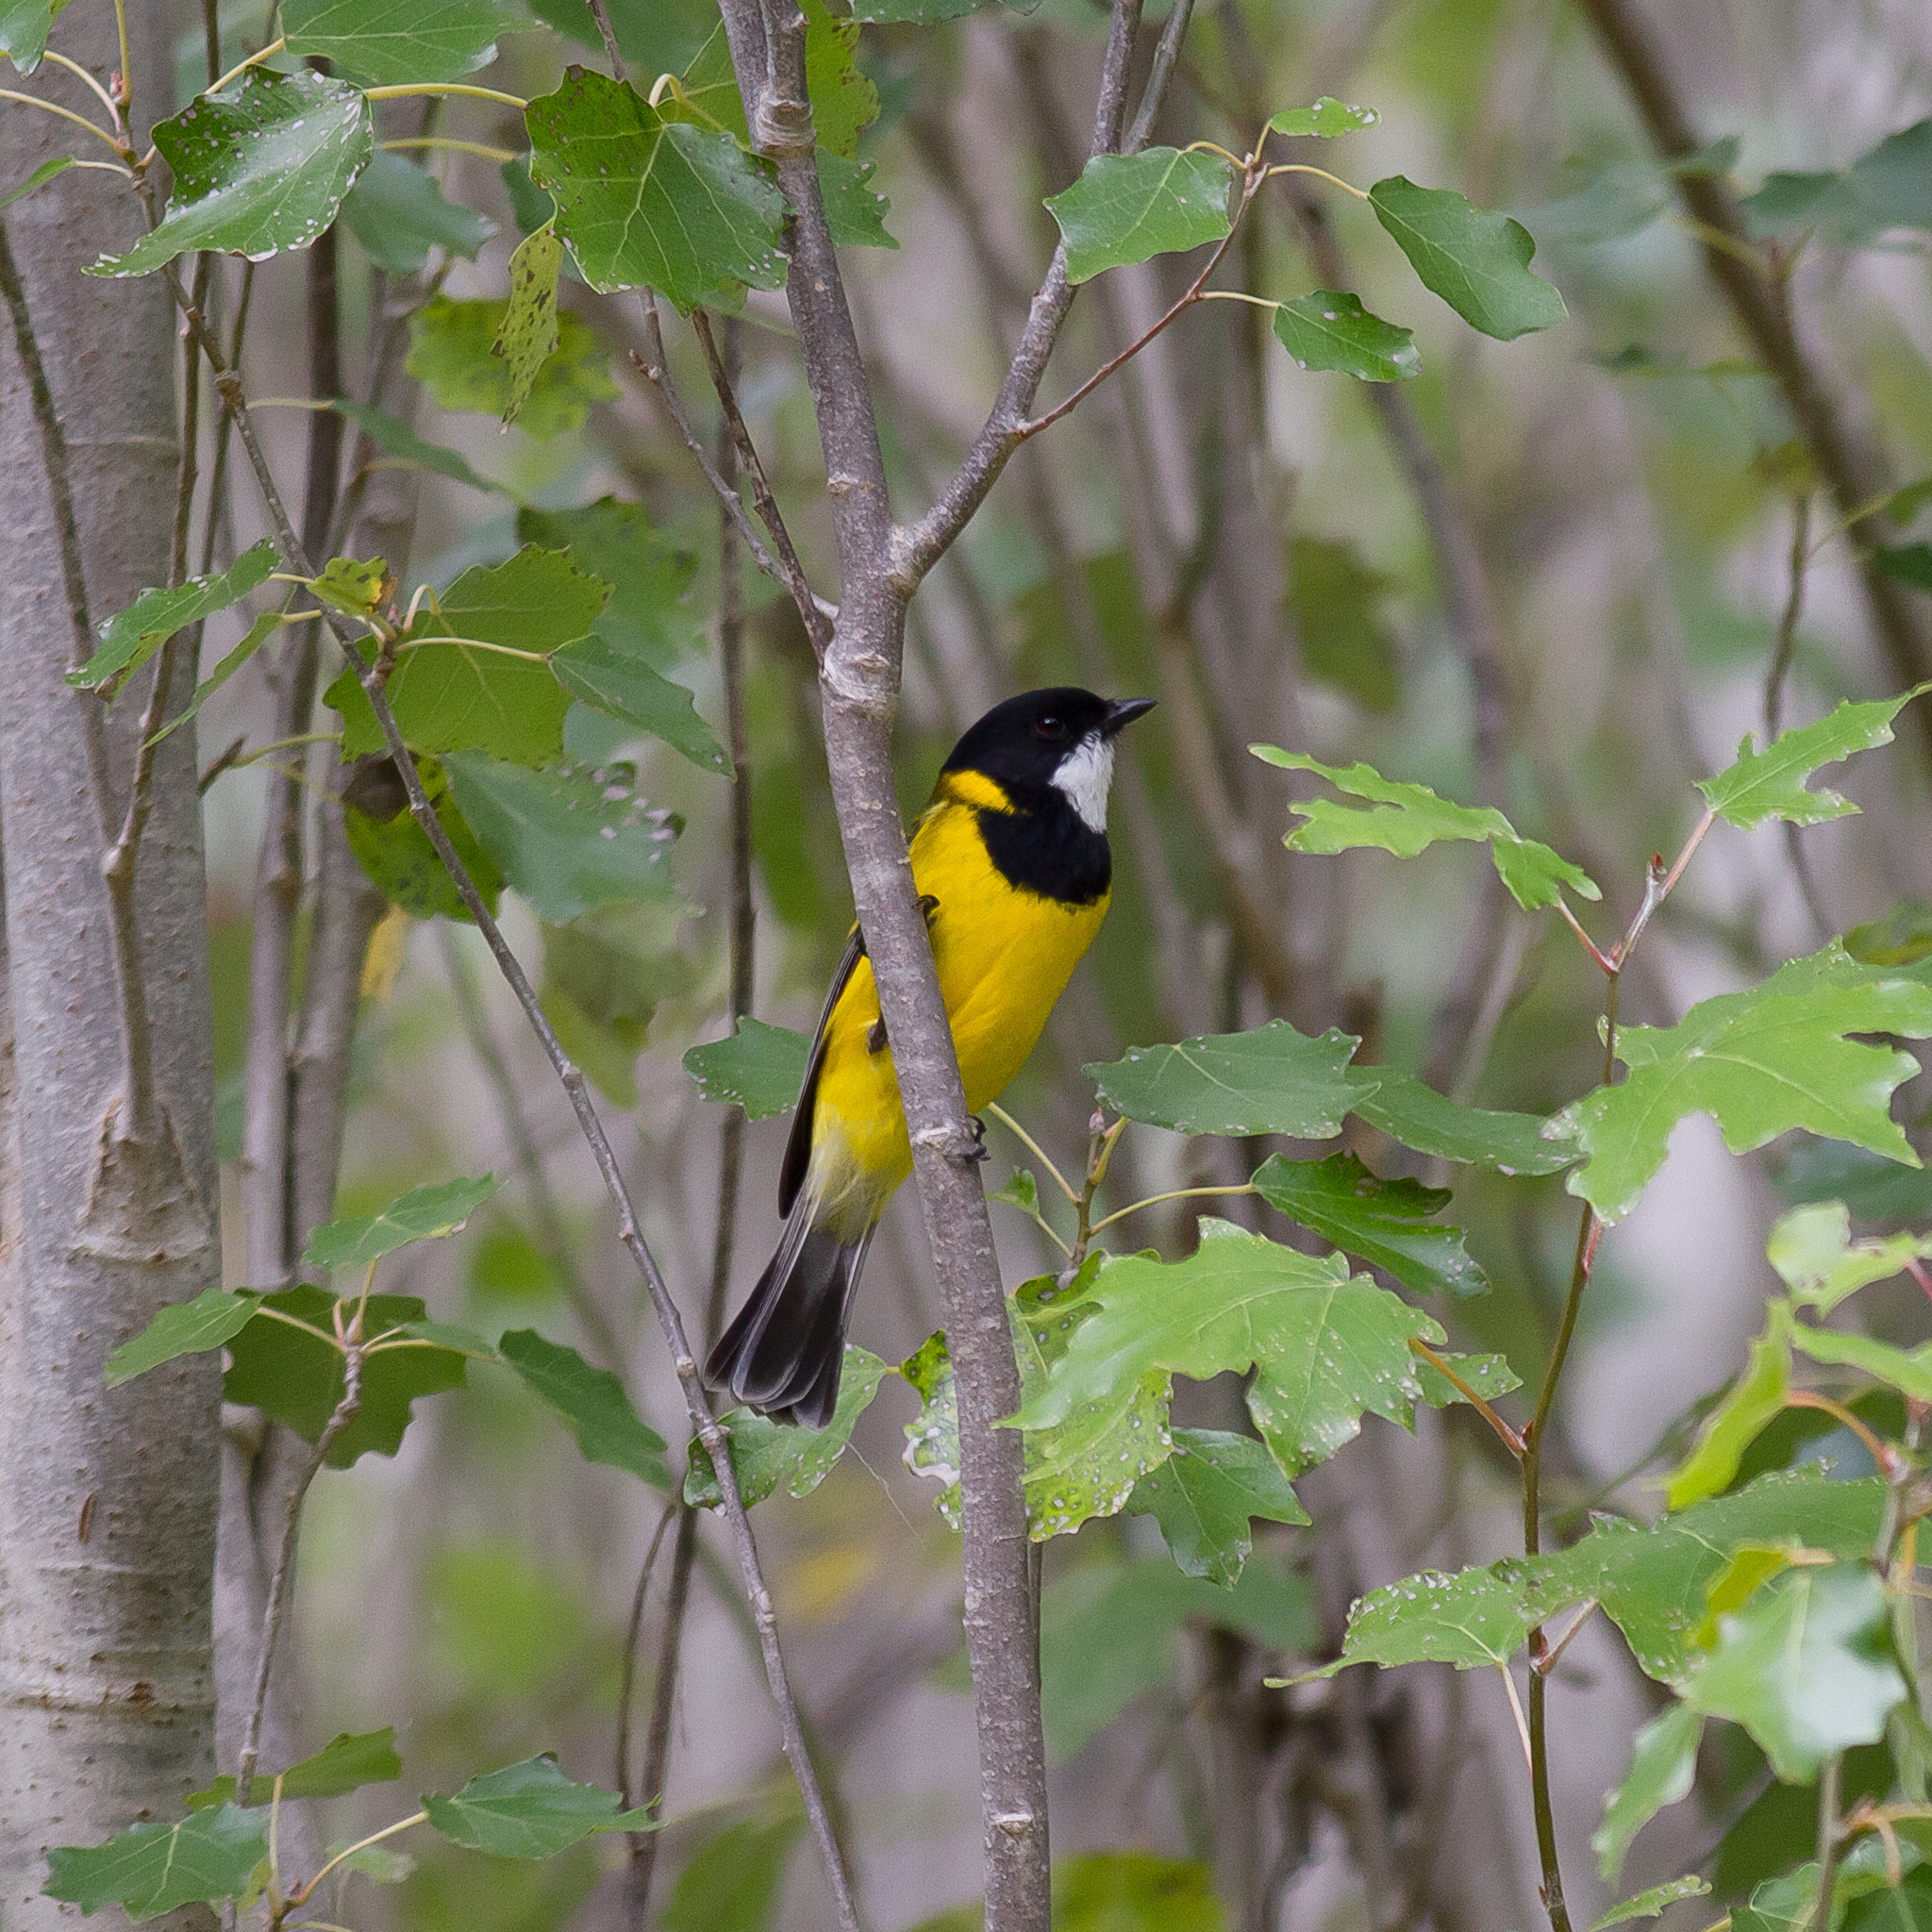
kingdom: Animalia
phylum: Chordata
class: Aves
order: Passeriformes
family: Pachycephalidae
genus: Pachycephala
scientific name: Pachycephala fuliginosa
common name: Western whistler
